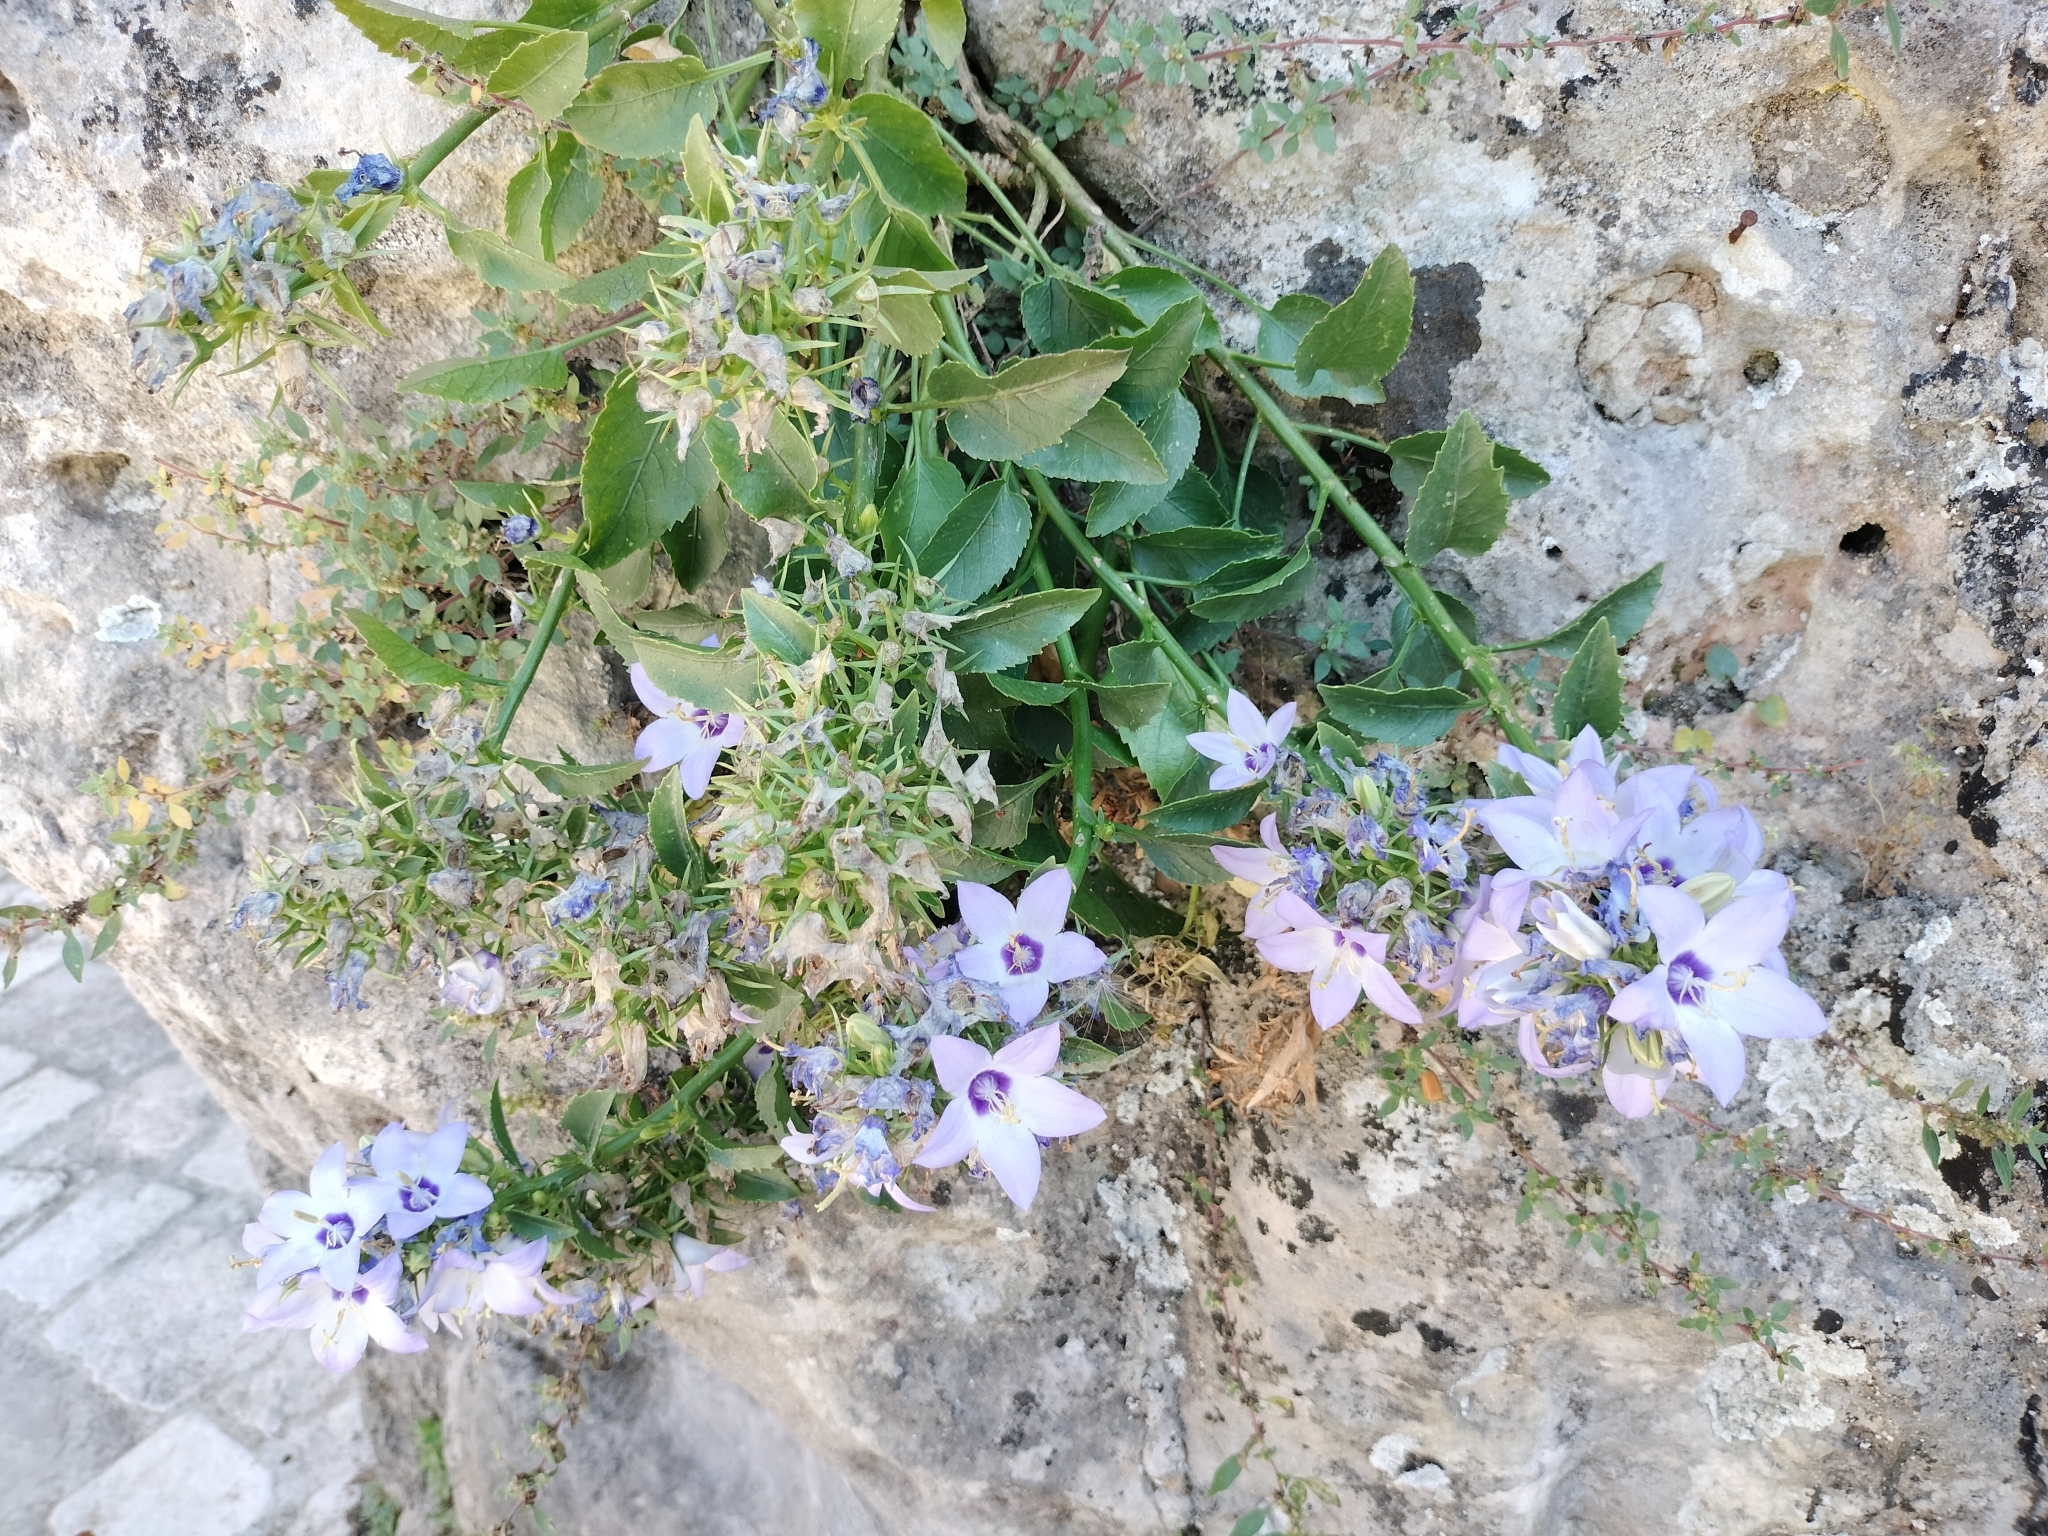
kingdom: Plantae
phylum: Tracheophyta
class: Magnoliopsida
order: Asterales
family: Campanulaceae
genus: Campanula
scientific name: Campanula versicolor
